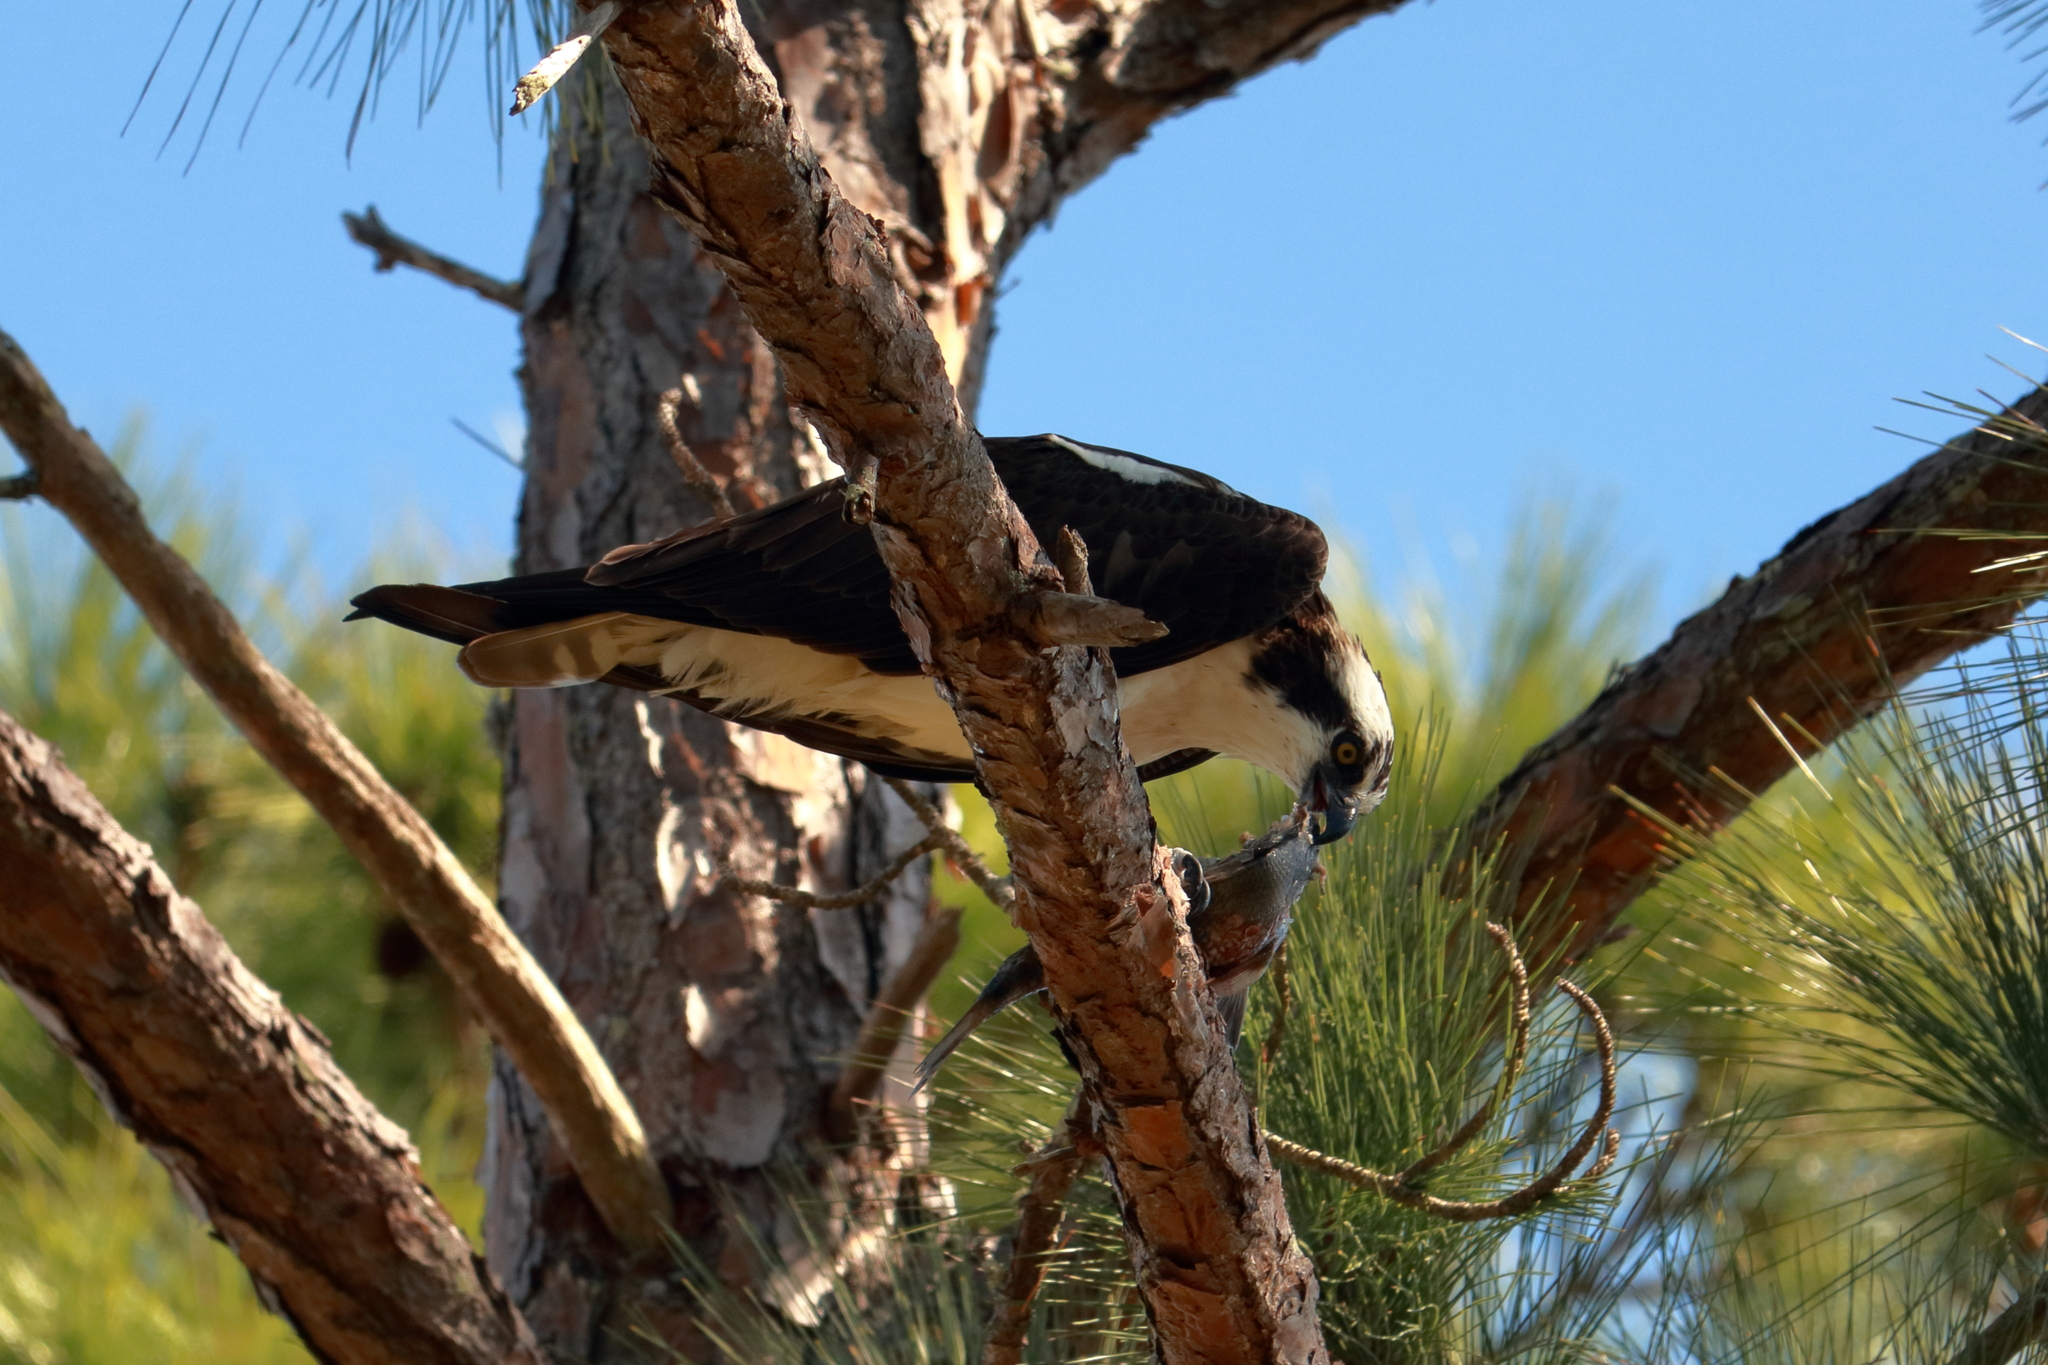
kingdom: Animalia
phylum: Chordata
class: Aves
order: Accipitriformes
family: Pandionidae
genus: Pandion
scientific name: Pandion haliaetus
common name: Osprey
